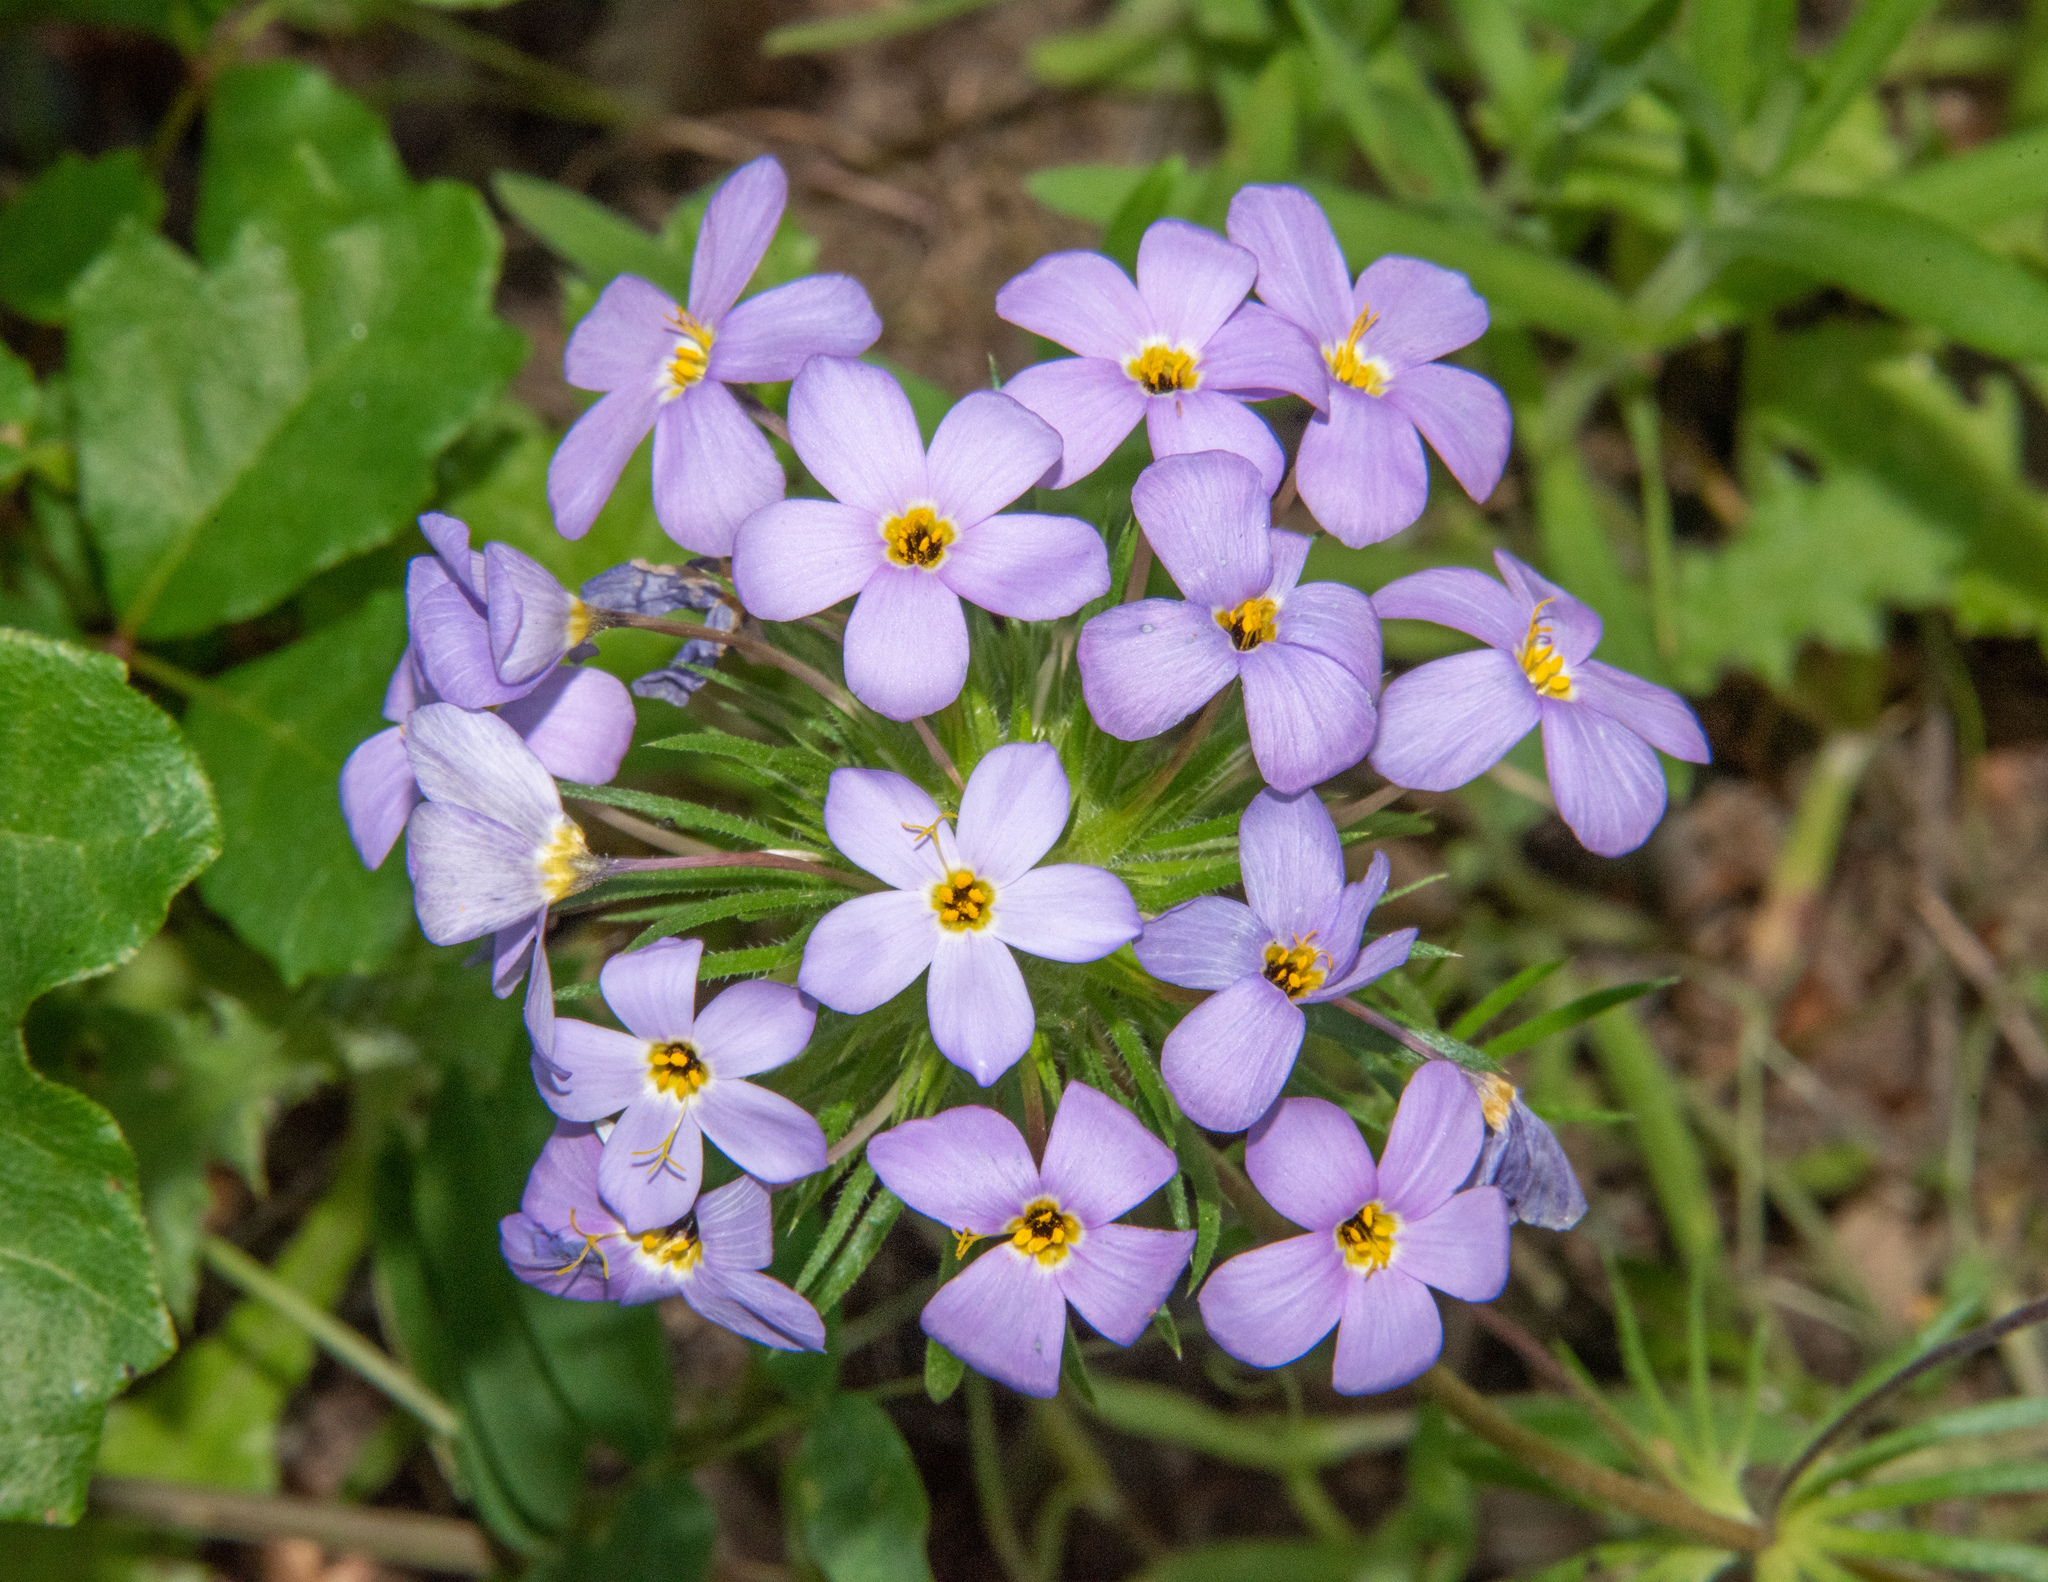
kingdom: Plantae
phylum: Tracheophyta
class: Magnoliopsida
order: Ericales
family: Polemoniaceae
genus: Leptosiphon
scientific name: Leptosiphon androsaceus
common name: False babystars
